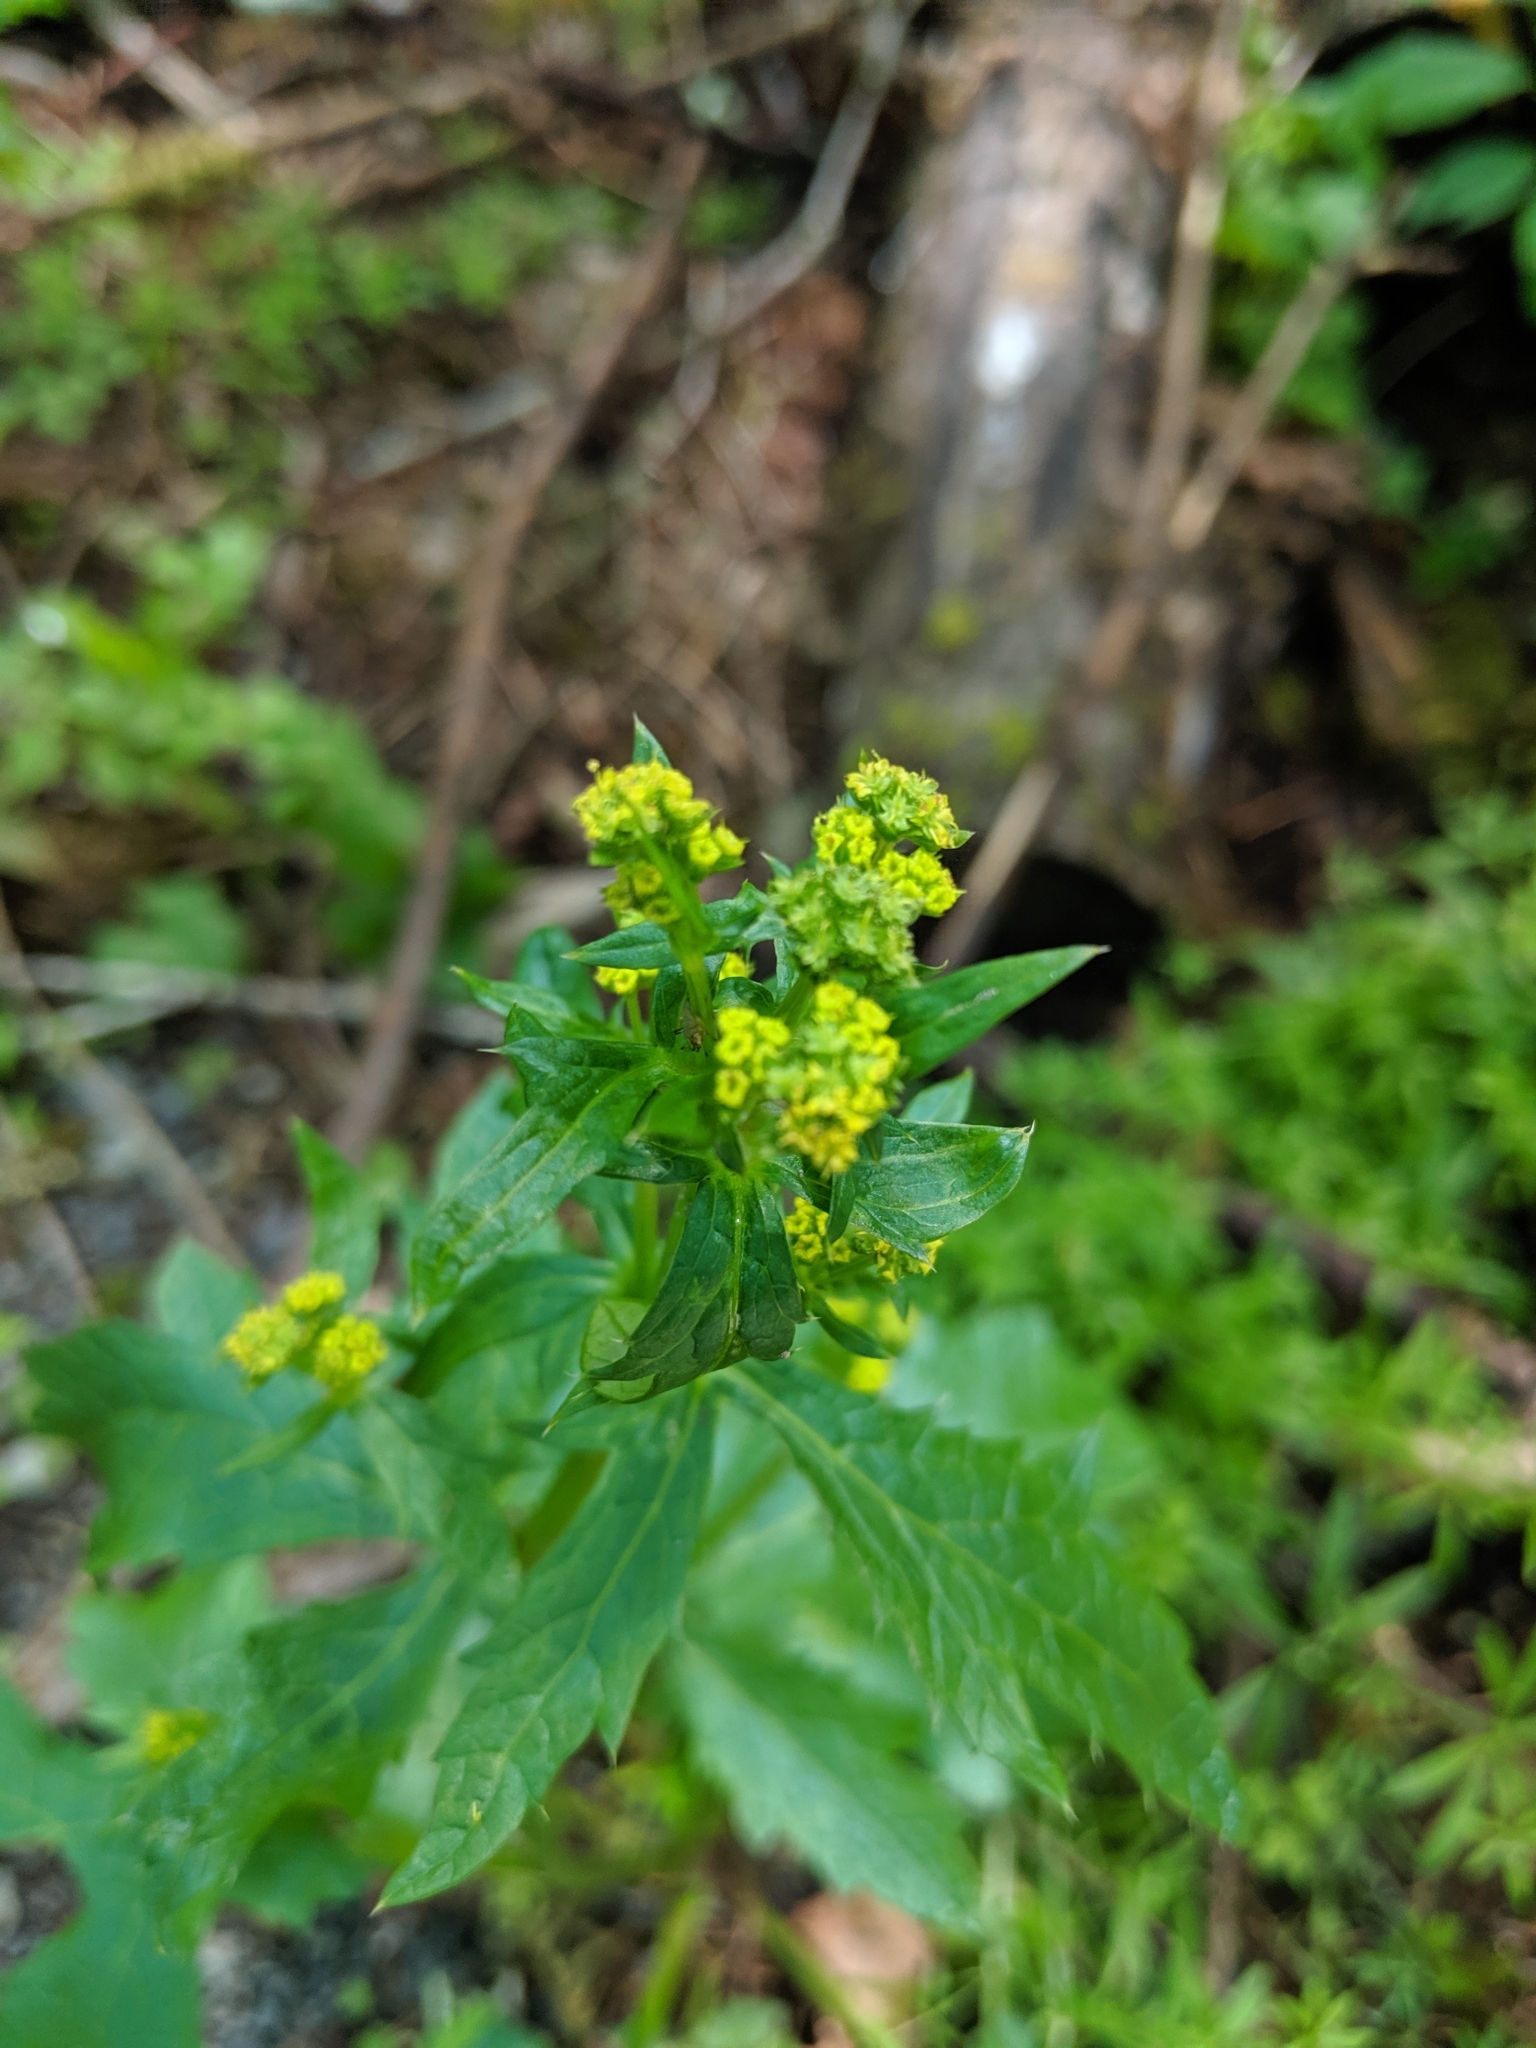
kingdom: Plantae
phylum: Tracheophyta
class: Magnoliopsida
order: Apiales
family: Apiaceae
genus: Sanicula
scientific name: Sanicula crassicaulis
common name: Western snakeroot
